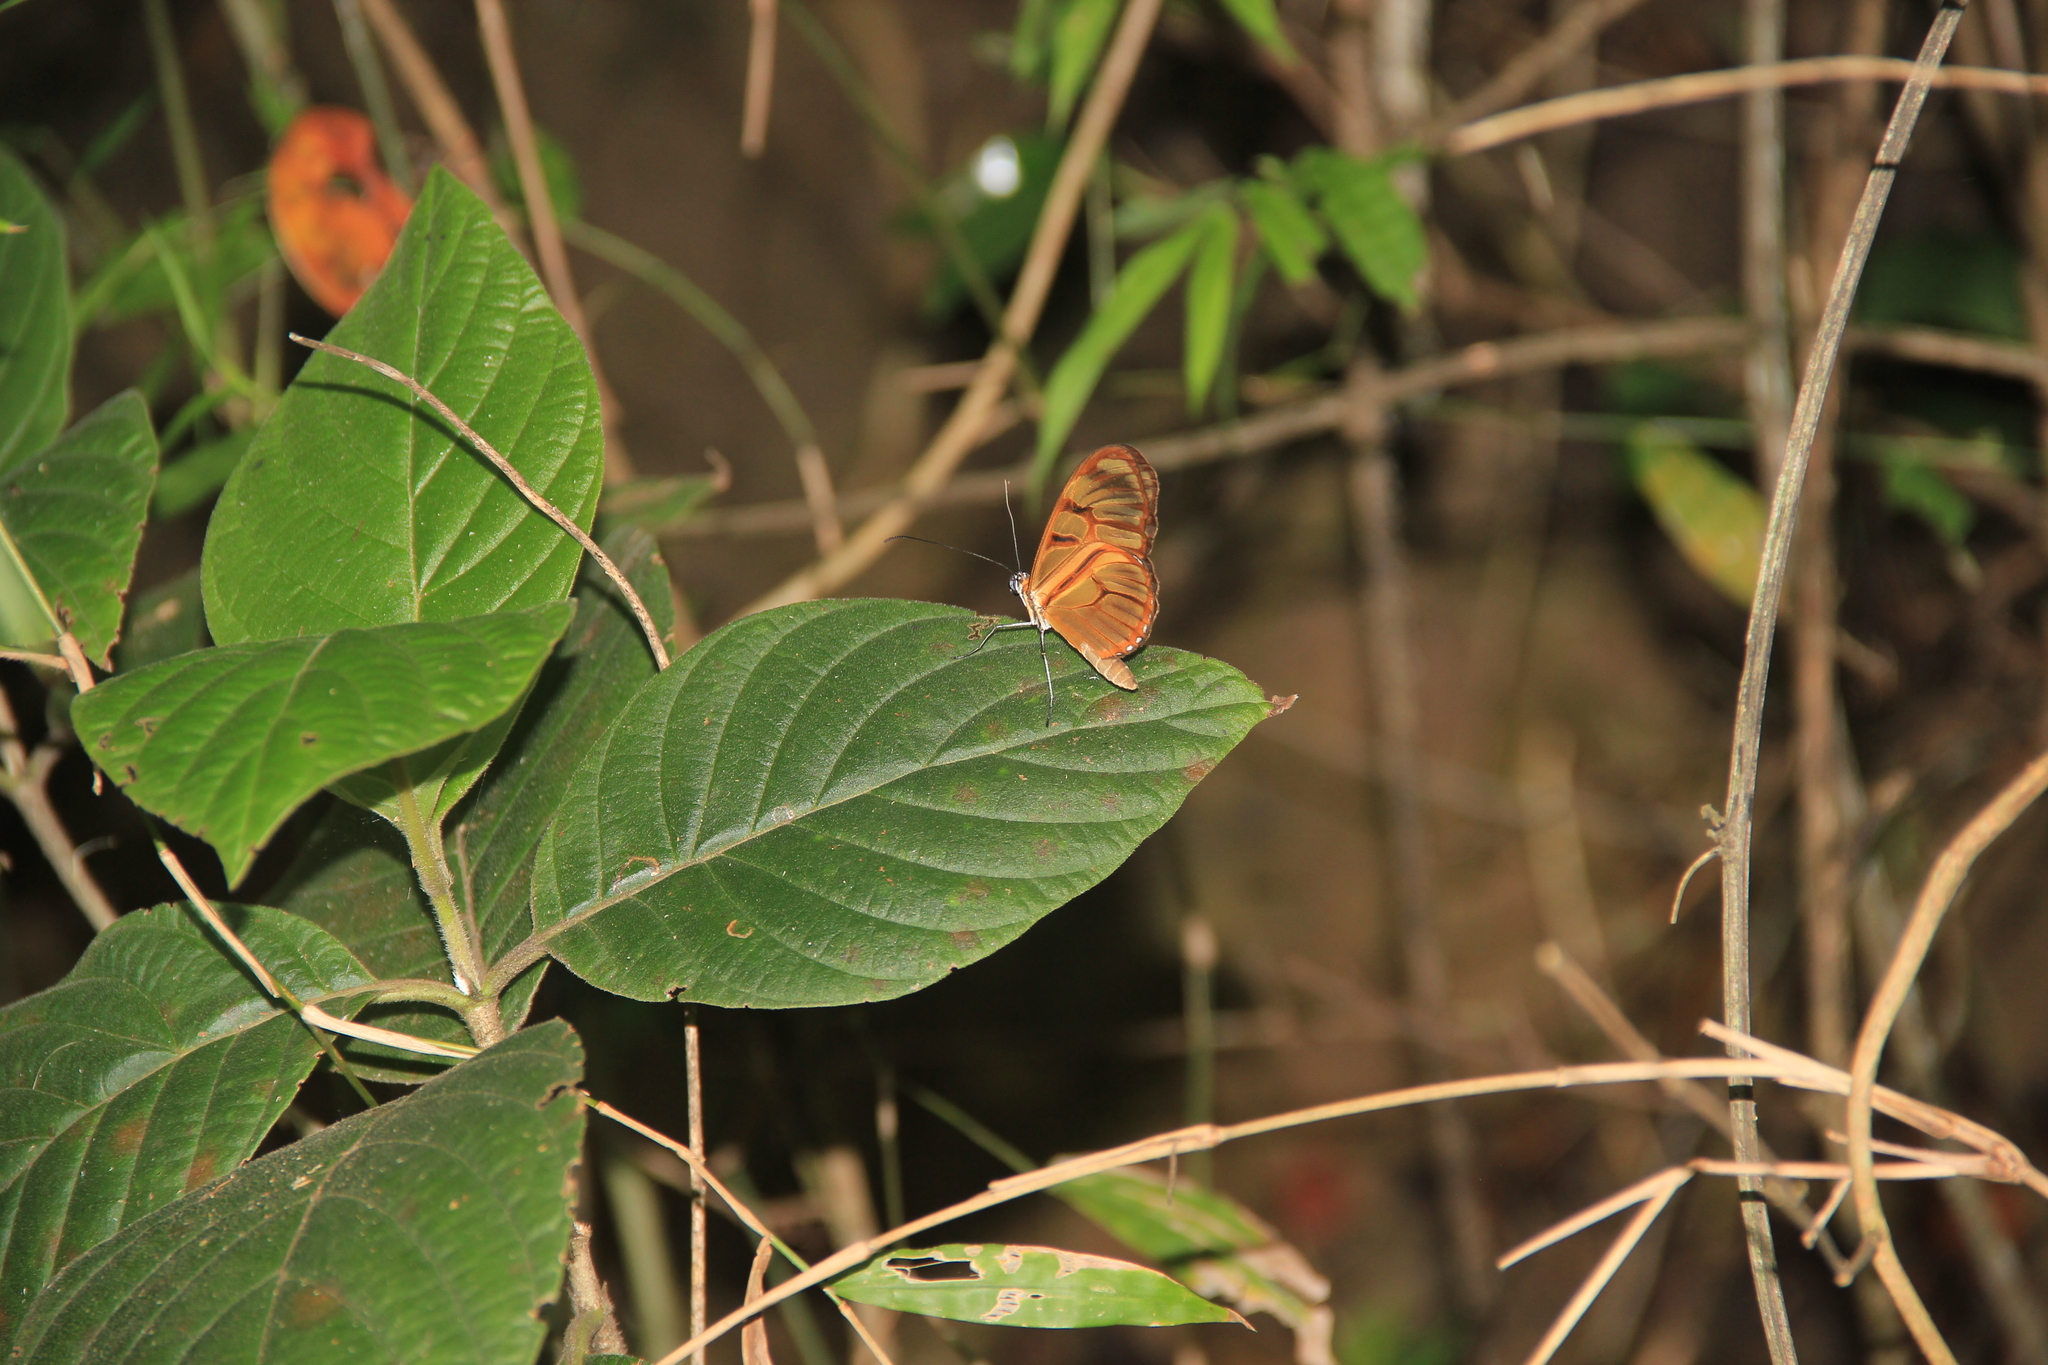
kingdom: Animalia
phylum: Arthropoda
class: Insecta
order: Lepidoptera
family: Nymphalidae
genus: Athesis
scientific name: Athesis clearista
